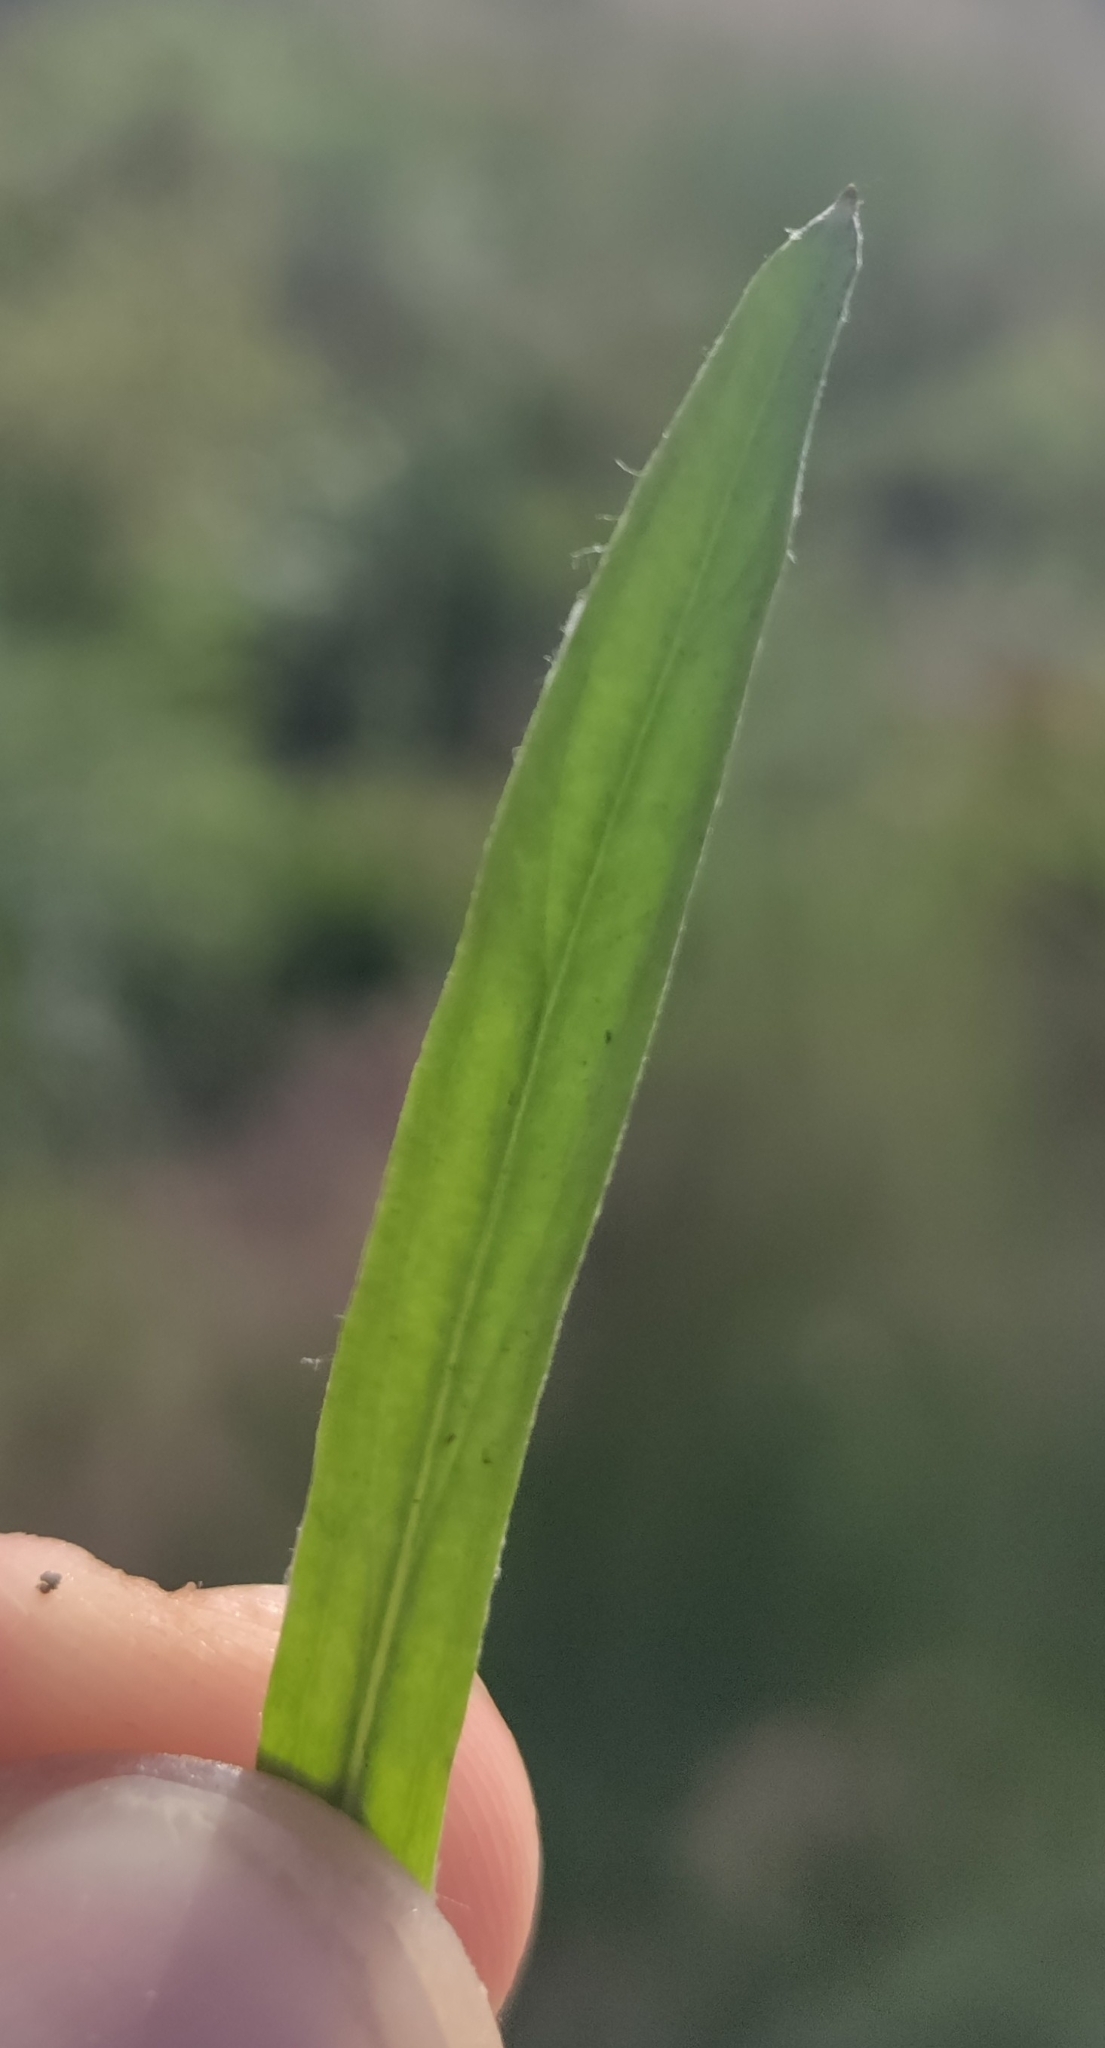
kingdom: Plantae
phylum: Tracheophyta
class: Magnoliopsida
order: Asterales
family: Asteraceae
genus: Omalotheca
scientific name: Omalotheca sylvatica
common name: Heath cudweed
